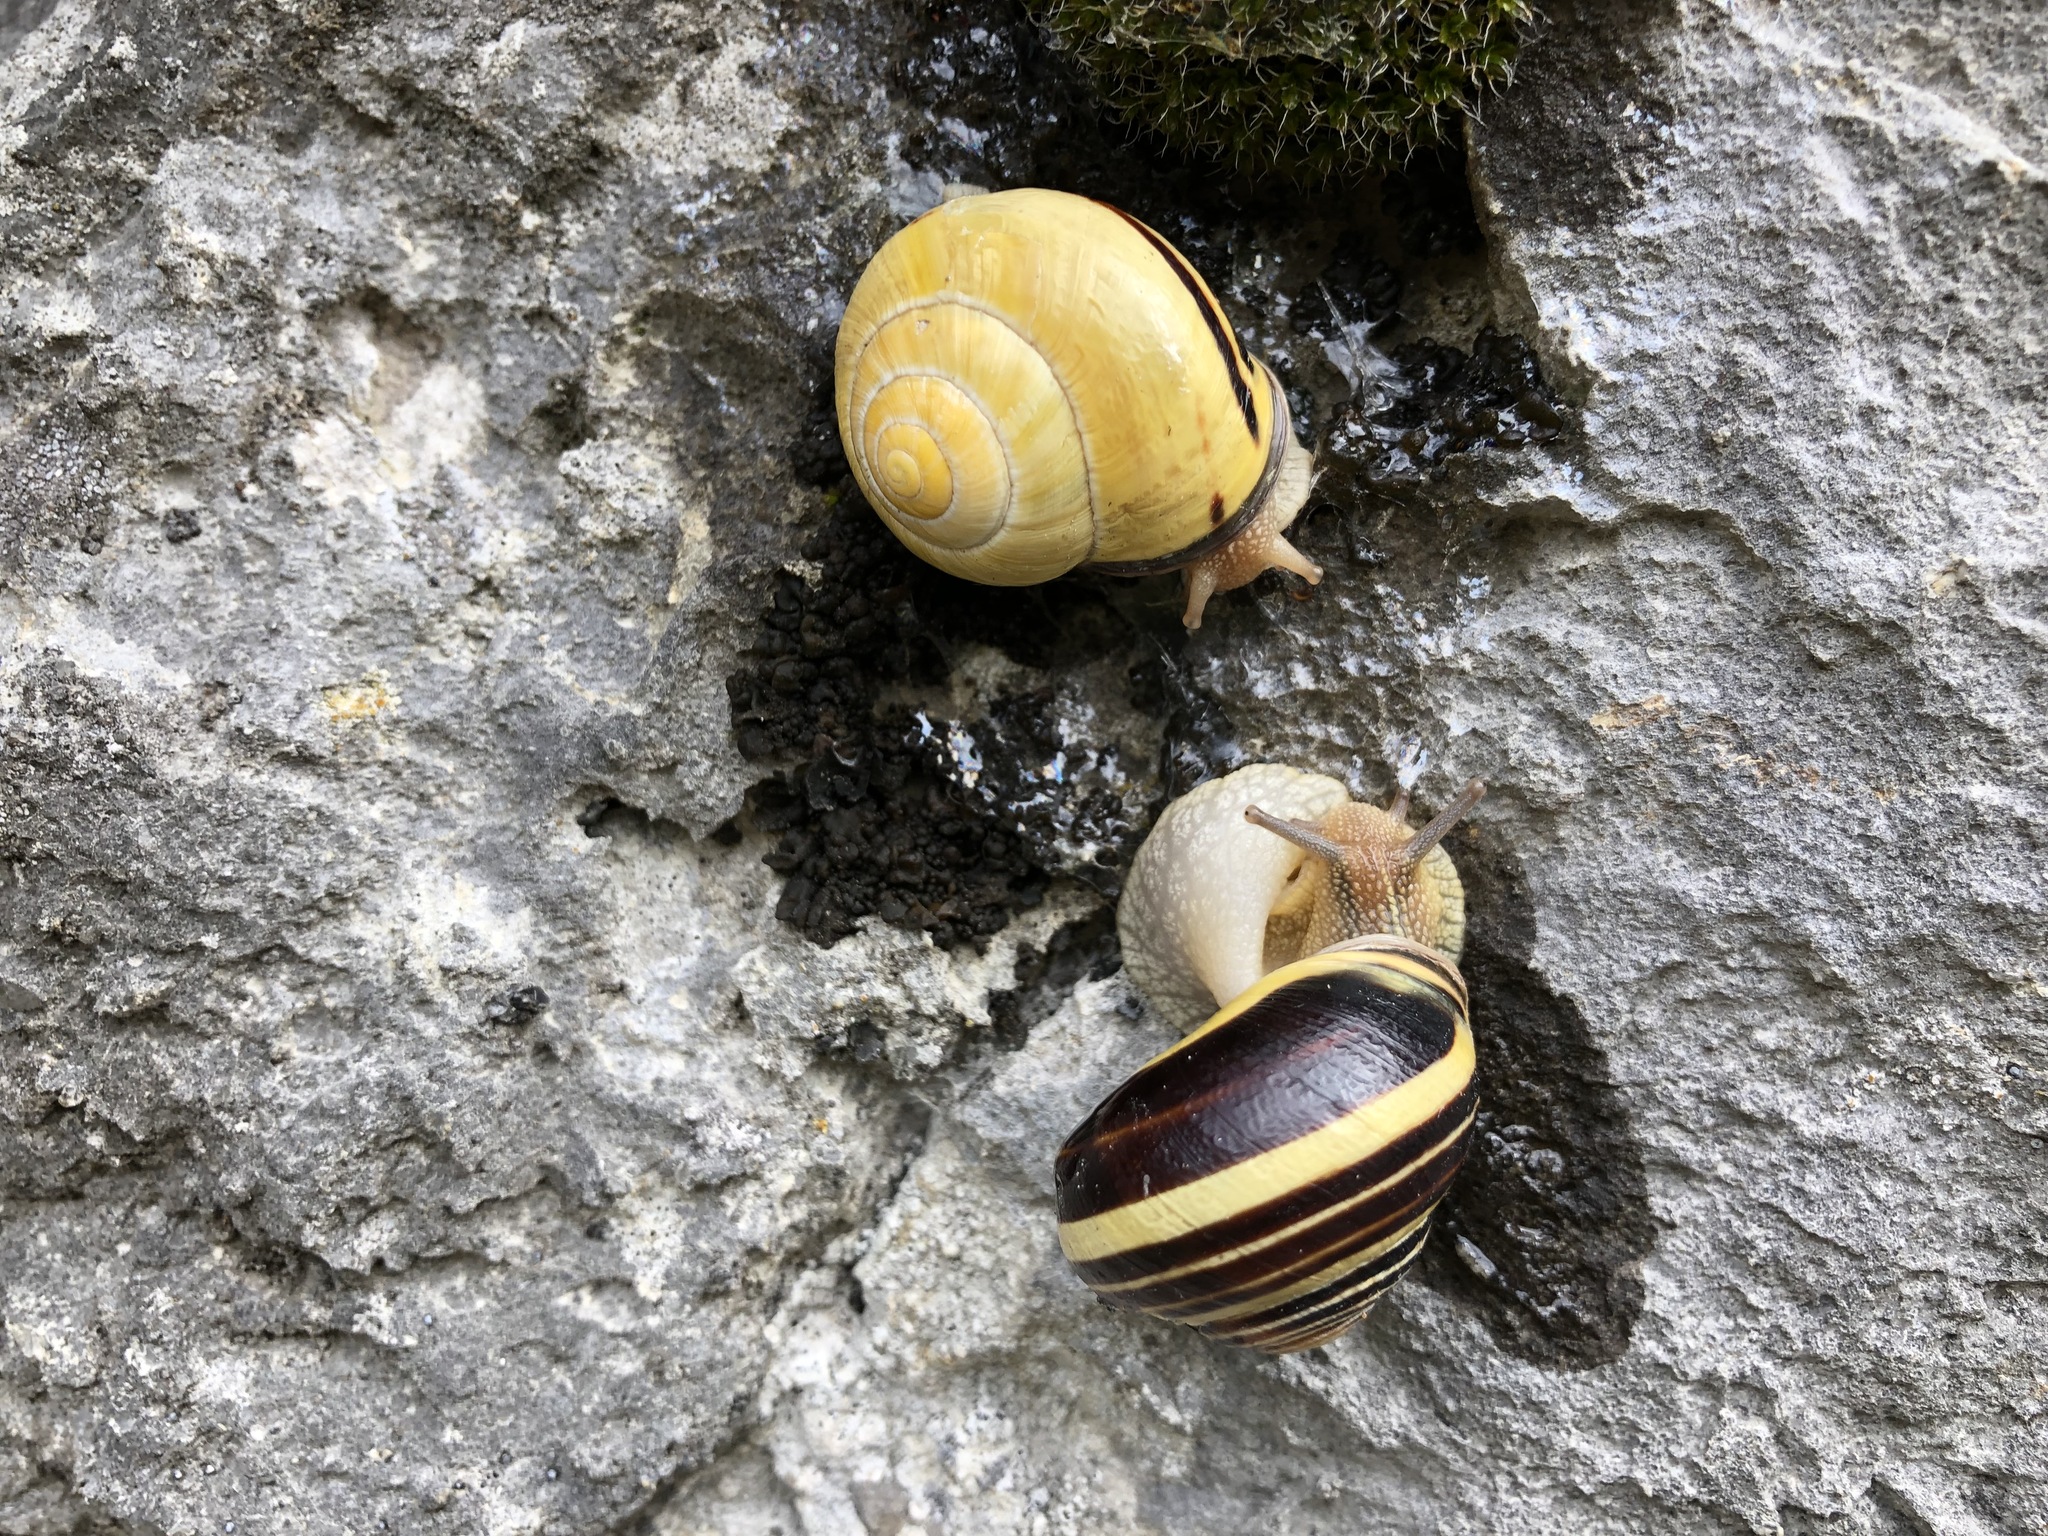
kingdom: Animalia
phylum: Mollusca
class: Gastropoda
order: Stylommatophora
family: Helicidae
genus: Cepaea
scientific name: Cepaea nemoralis
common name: Grovesnail
